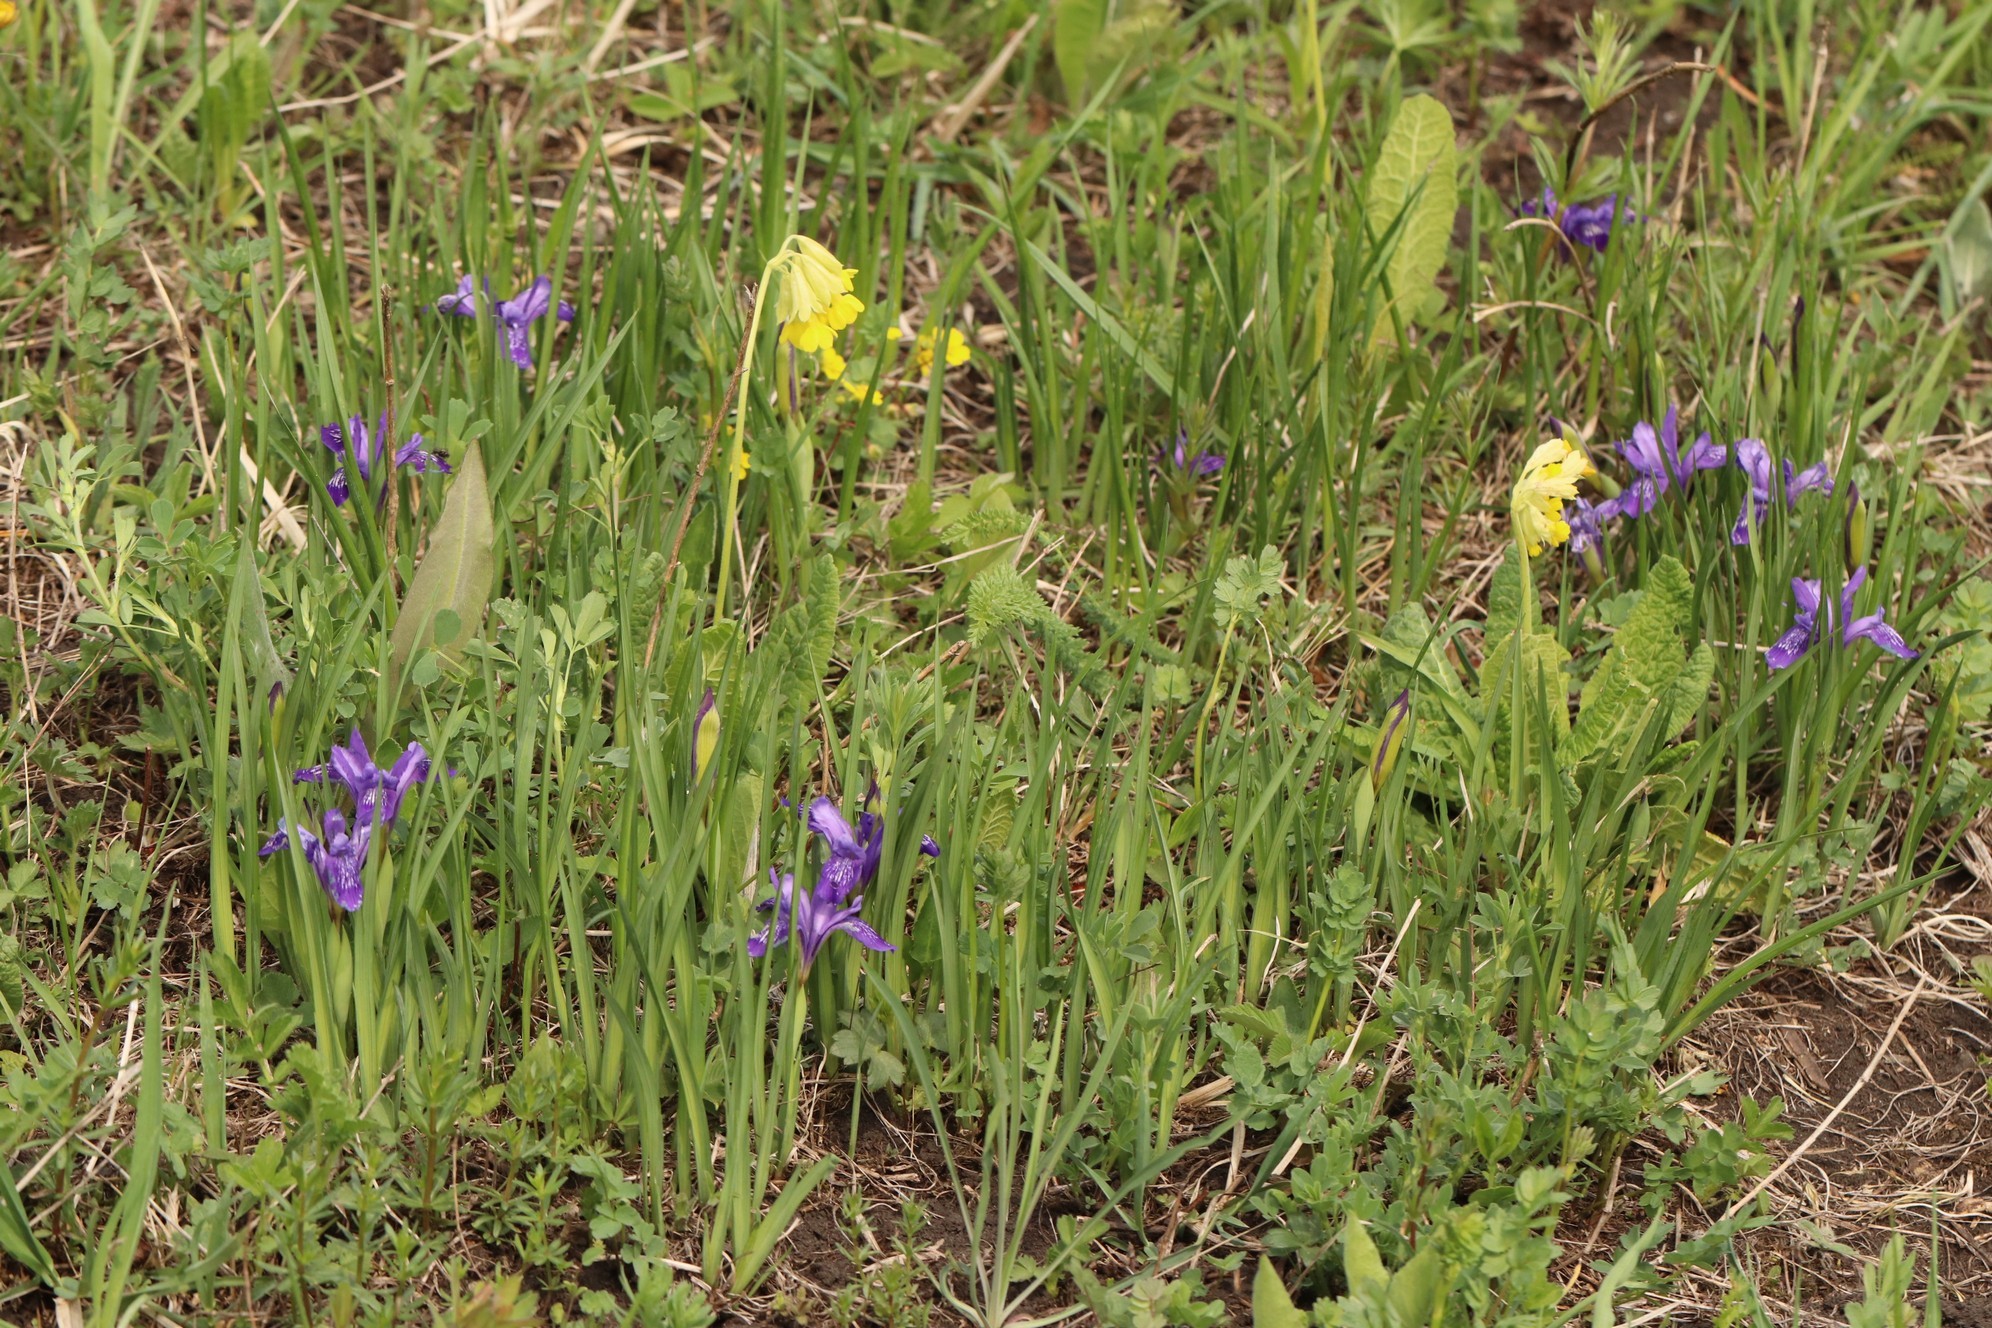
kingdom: Plantae
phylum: Tracheophyta
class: Liliopsida
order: Asparagales
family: Iridaceae
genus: Iris
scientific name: Iris ruthenica
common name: Purple-bract iris
